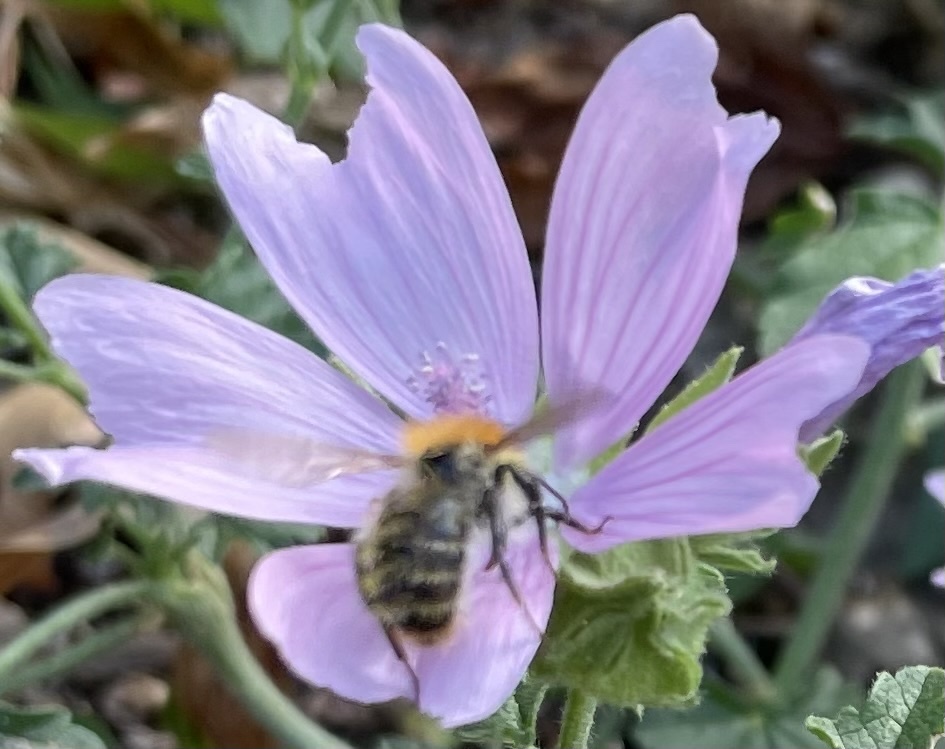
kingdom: Animalia
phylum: Arthropoda
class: Insecta
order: Hymenoptera
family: Apidae
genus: Bombus
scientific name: Bombus pascuorum
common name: Common carder bee
